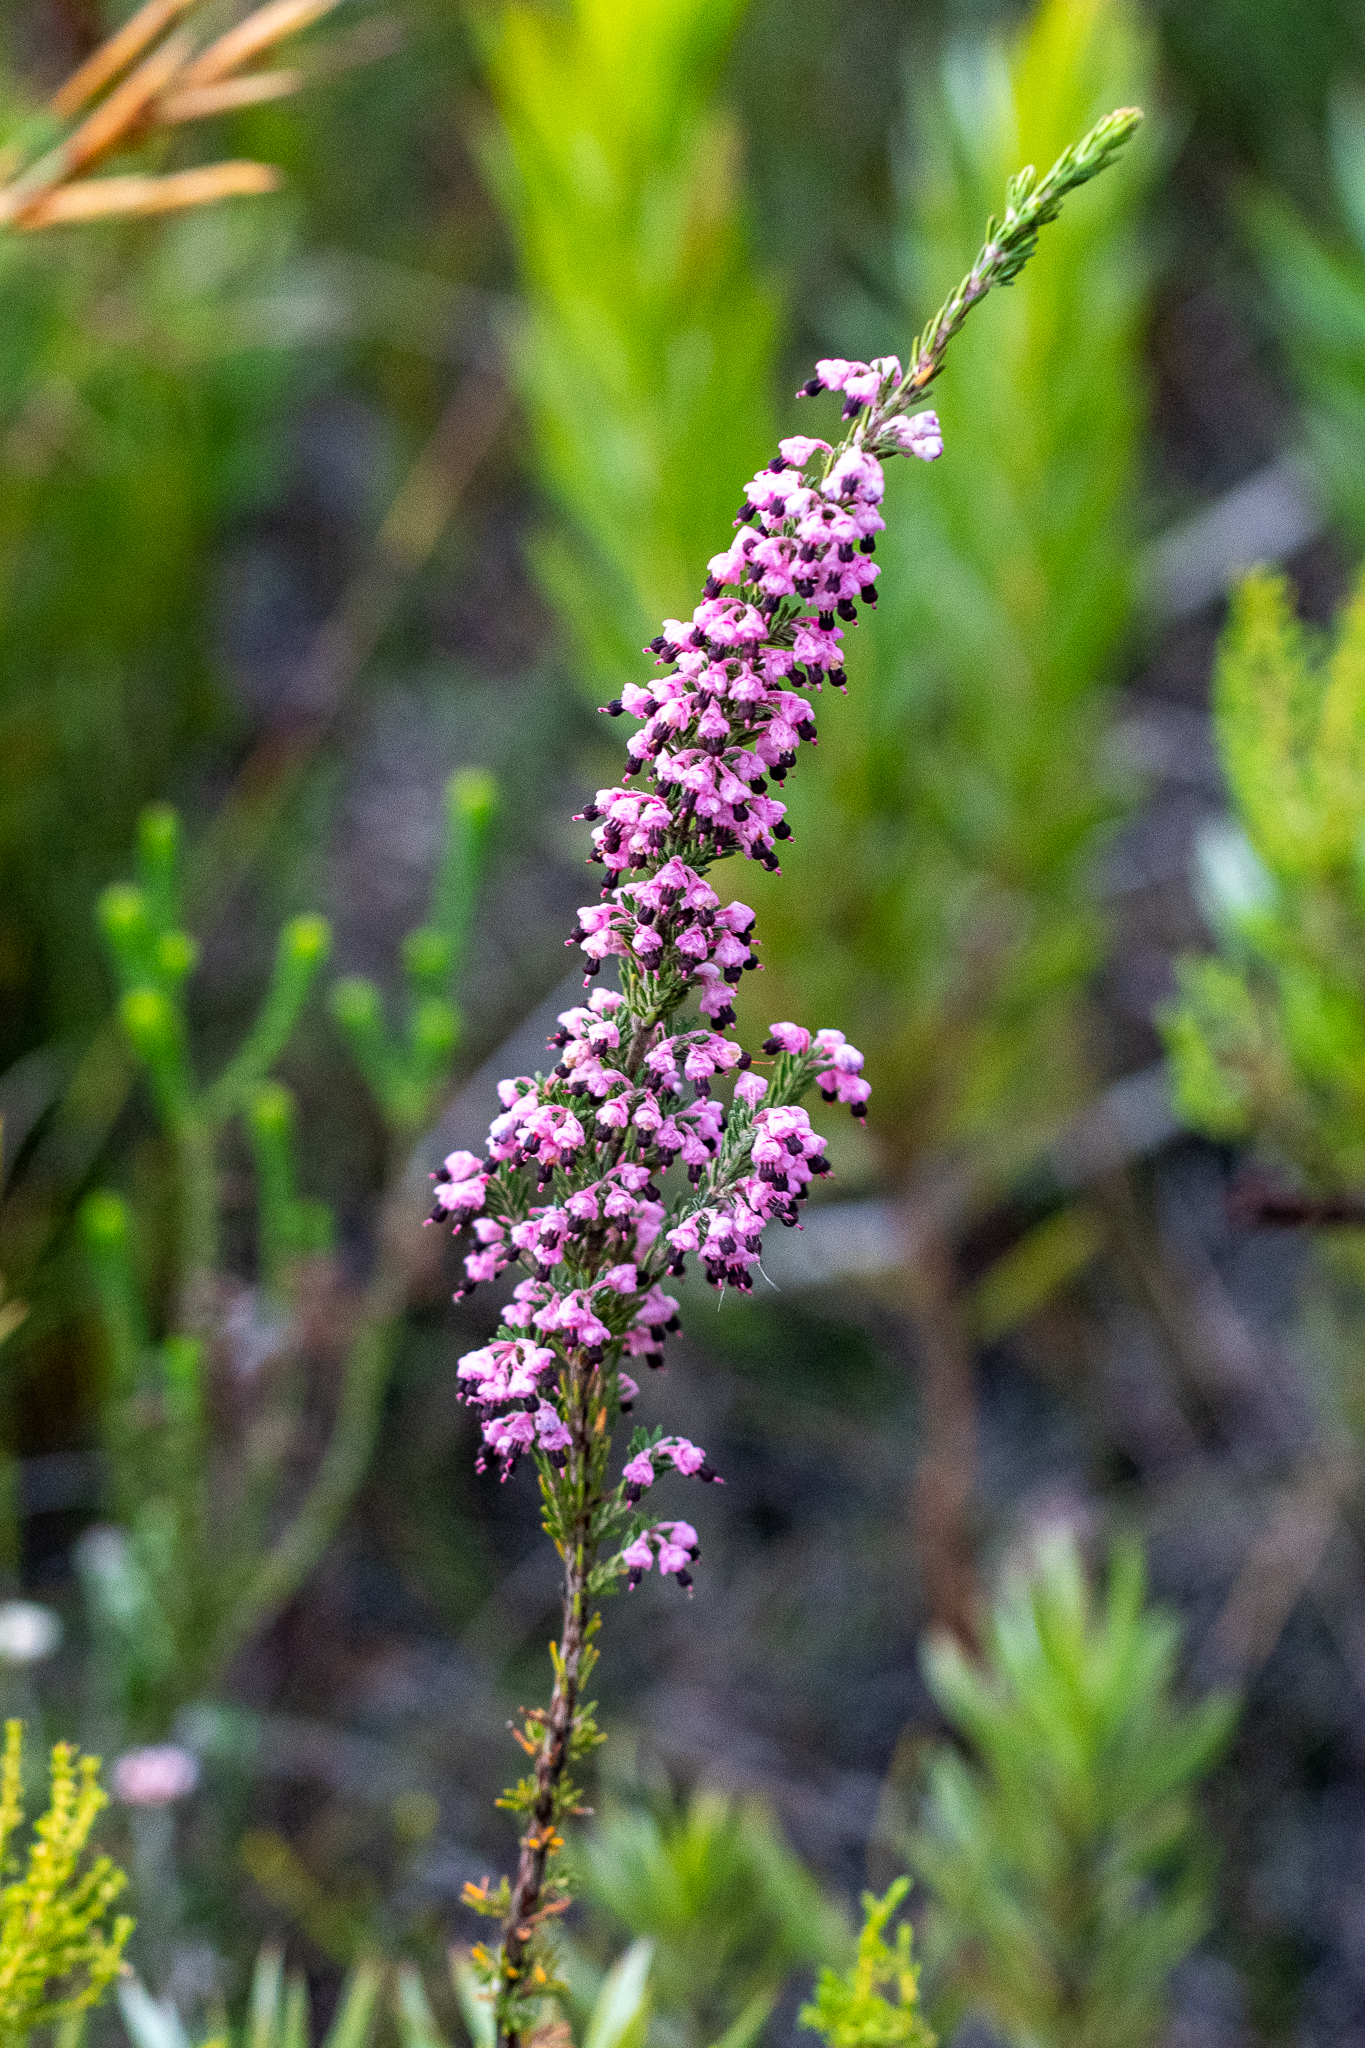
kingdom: Plantae
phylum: Tracheophyta
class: Magnoliopsida
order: Ericales
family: Ericaceae
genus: Erica
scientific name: Erica placentiflora
